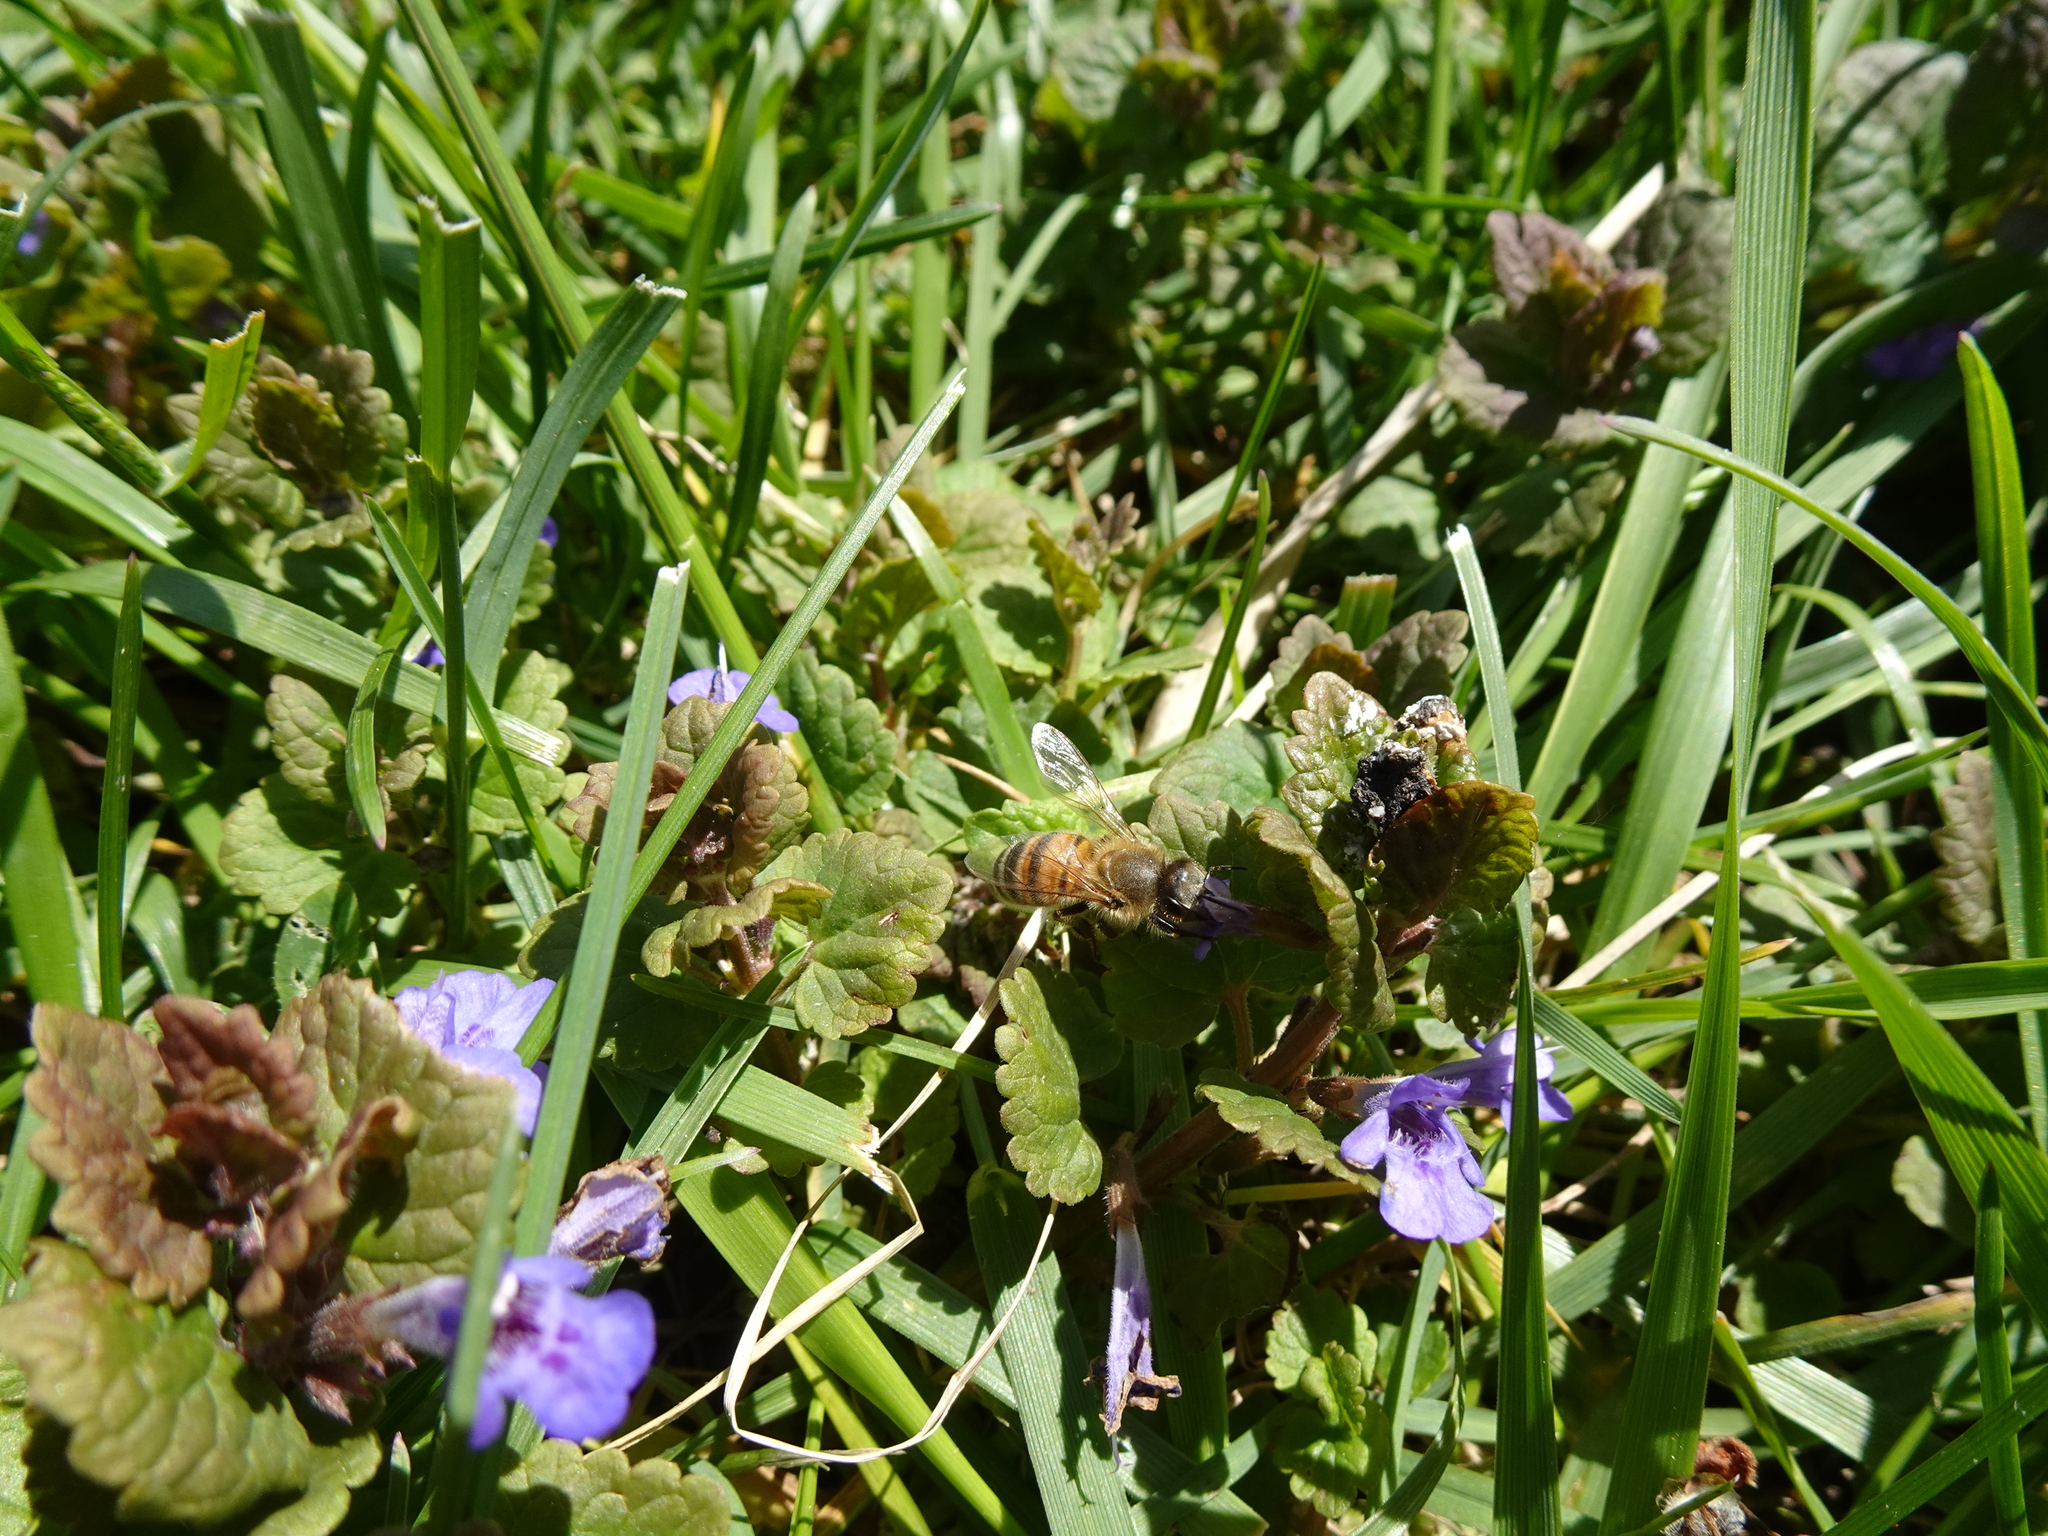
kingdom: Animalia
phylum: Arthropoda
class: Insecta
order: Hymenoptera
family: Apidae
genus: Apis
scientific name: Apis mellifera
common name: Honey bee
